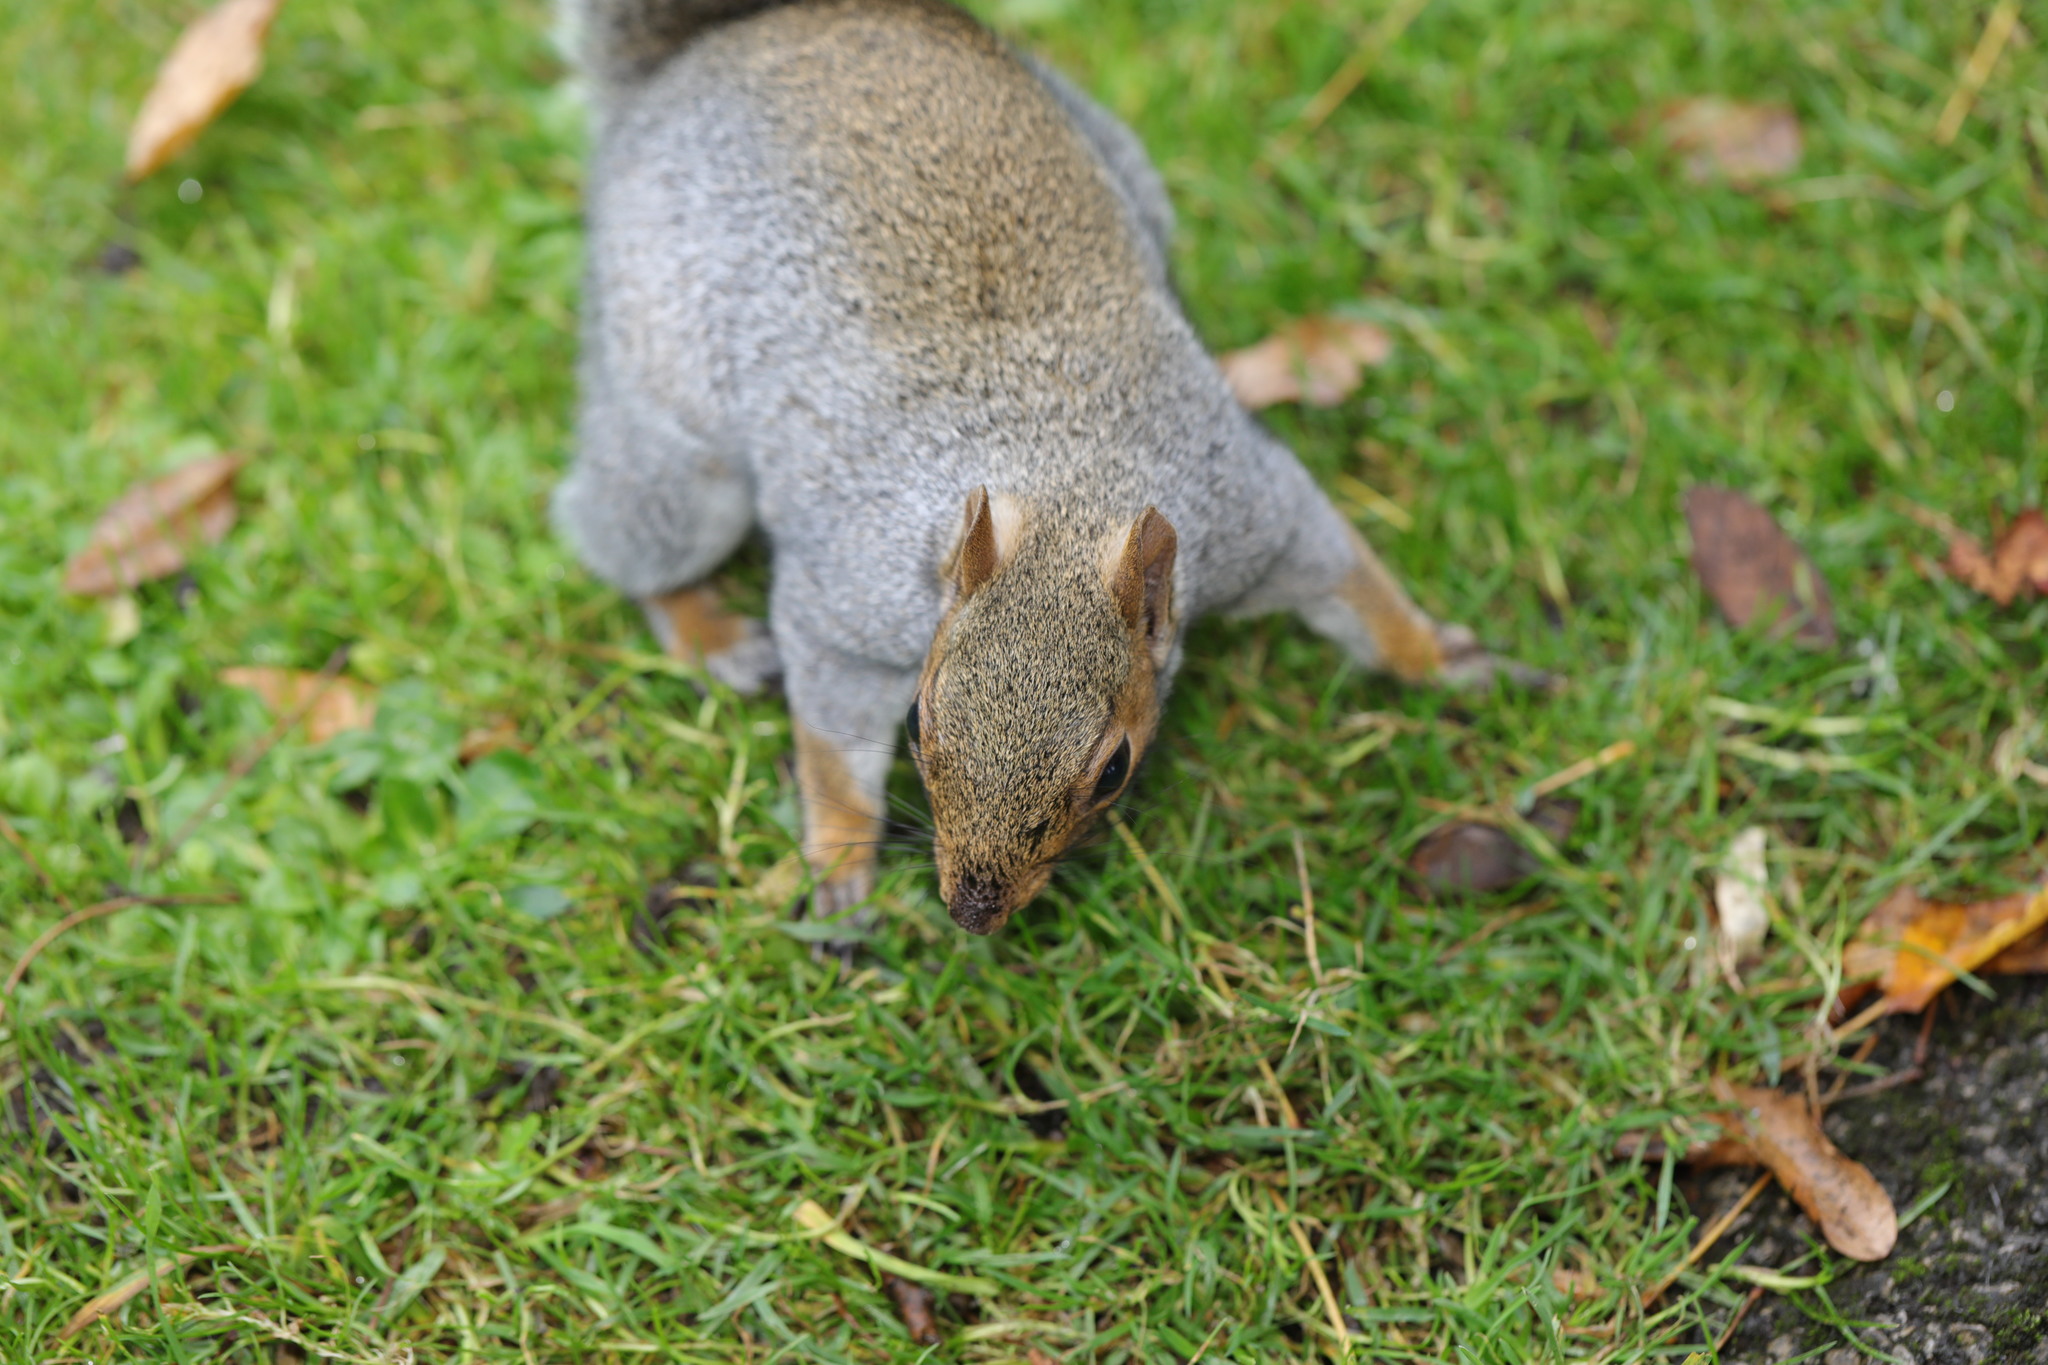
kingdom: Animalia
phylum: Chordata
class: Mammalia
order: Rodentia
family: Sciuridae
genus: Sciurus
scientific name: Sciurus carolinensis
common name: Eastern gray squirrel
